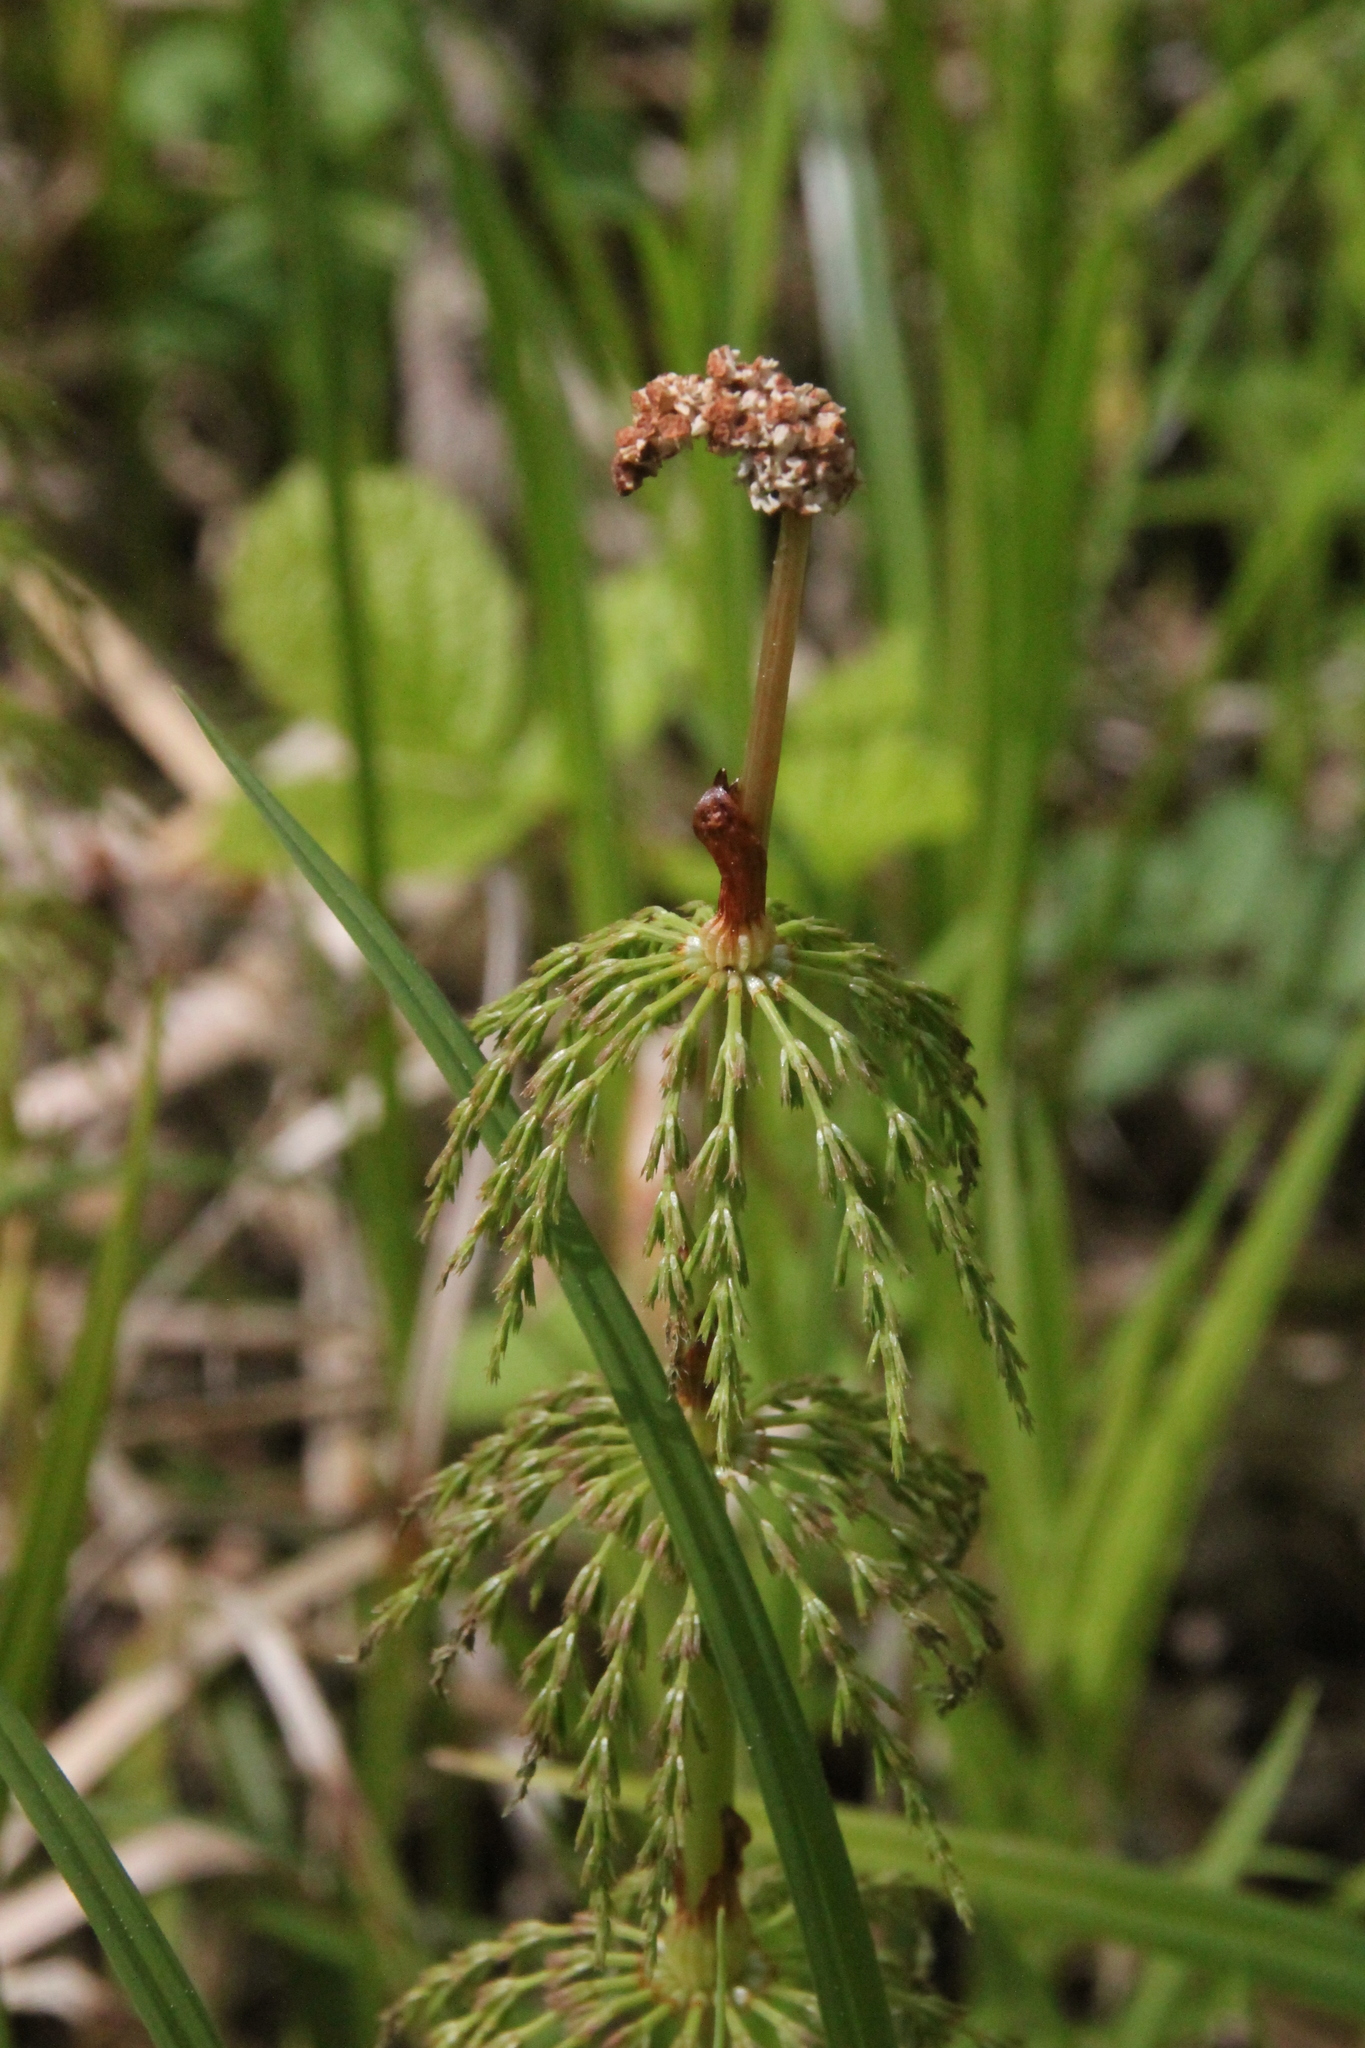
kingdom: Plantae
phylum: Tracheophyta
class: Polypodiopsida
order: Equisetales
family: Equisetaceae
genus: Equisetum
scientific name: Equisetum sylvaticum
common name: Wood horsetail
